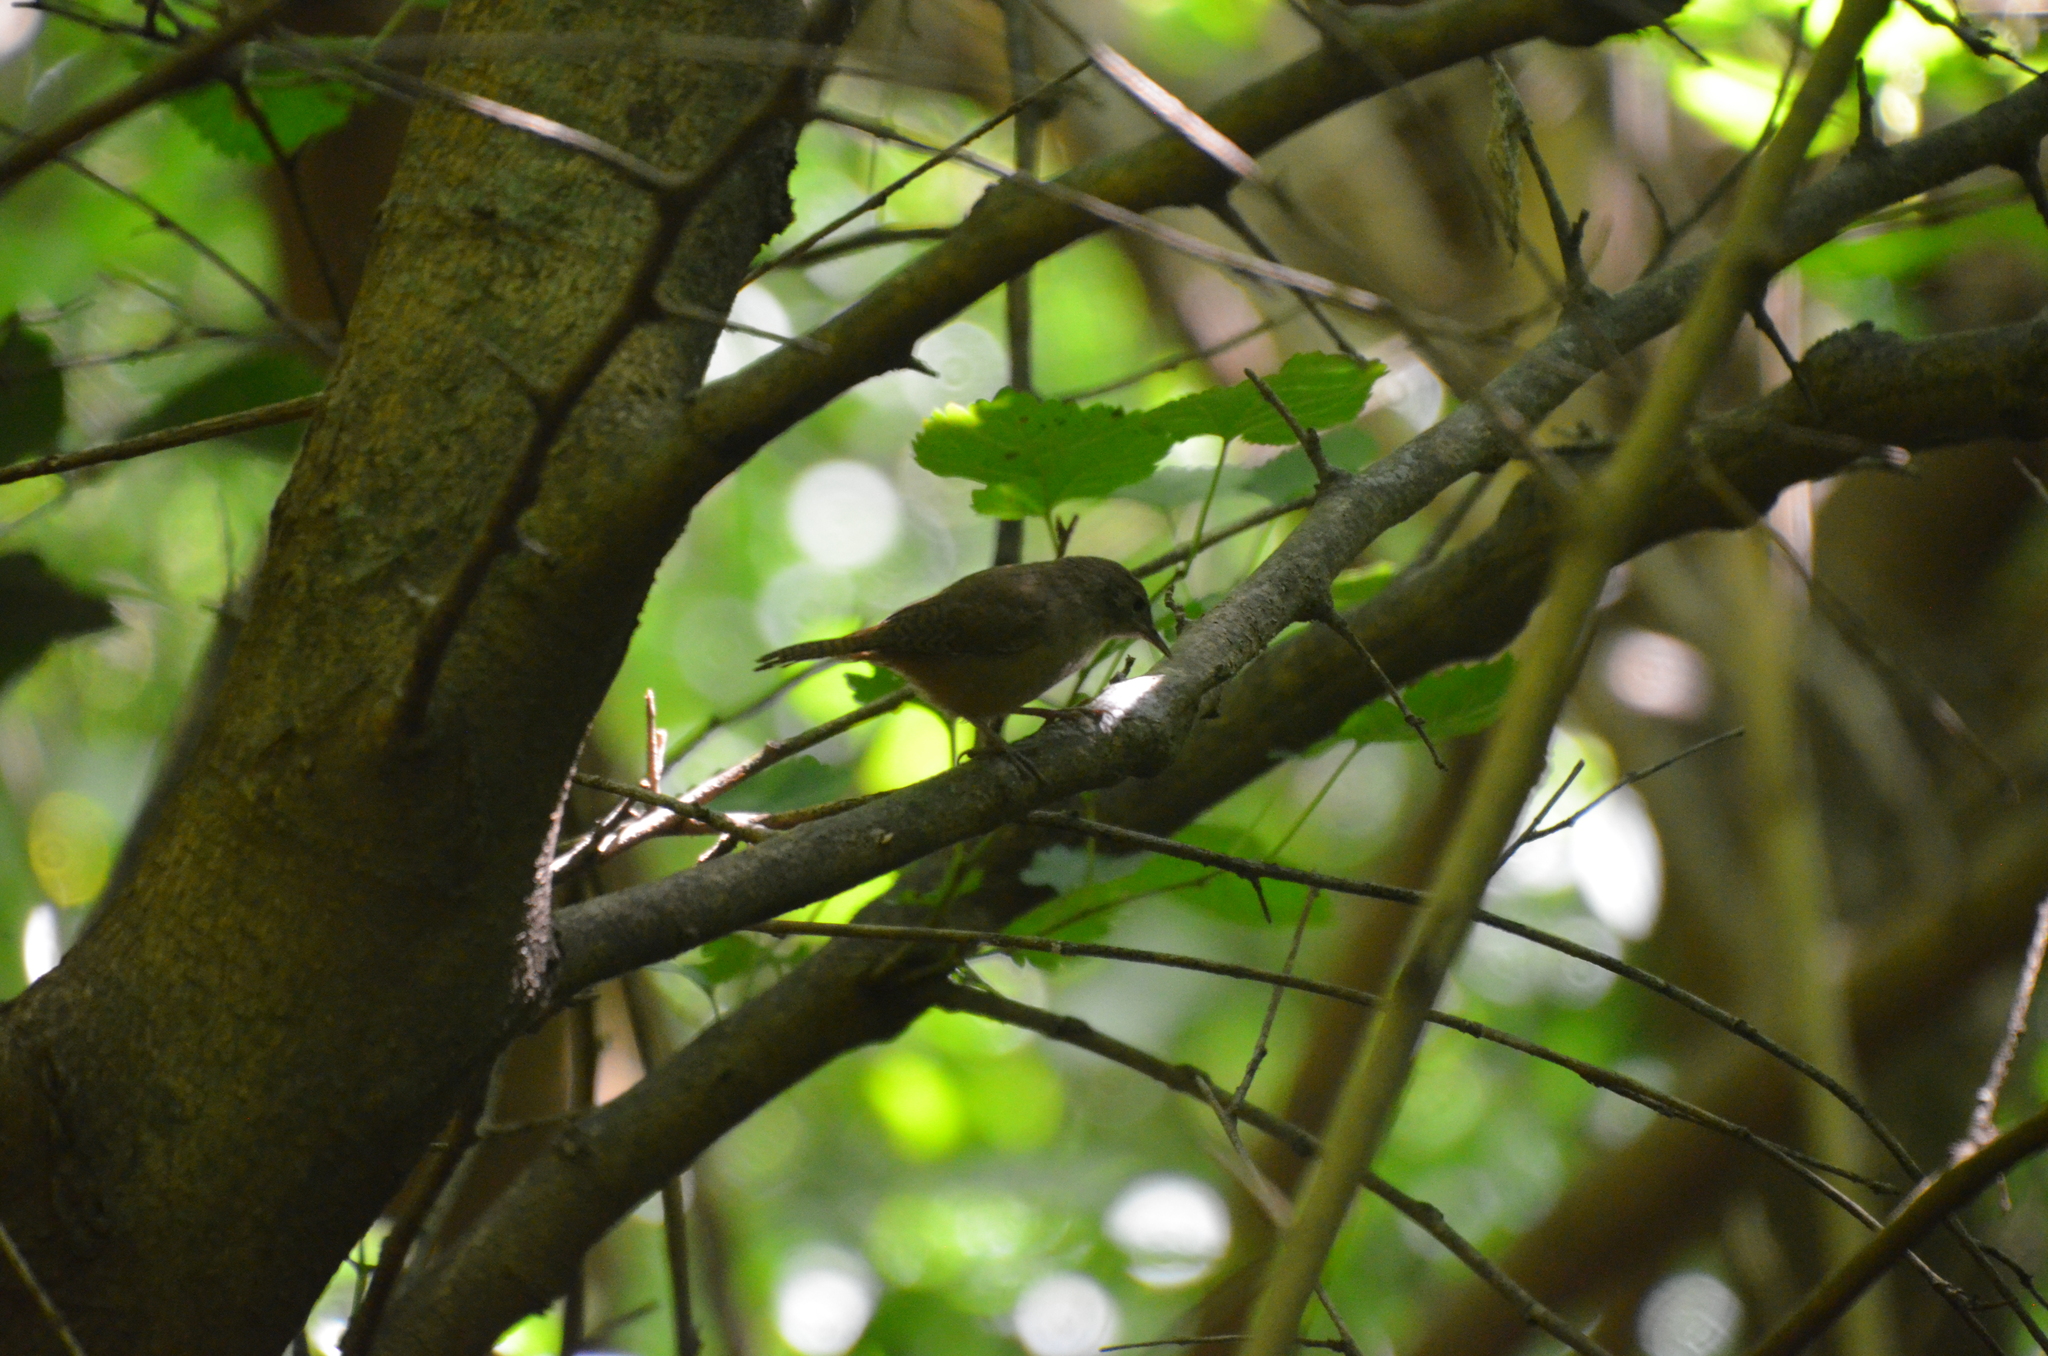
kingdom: Animalia
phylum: Chordata
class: Aves
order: Passeriformes
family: Troglodytidae
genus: Troglodytes
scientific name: Troglodytes aedon
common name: House wren
